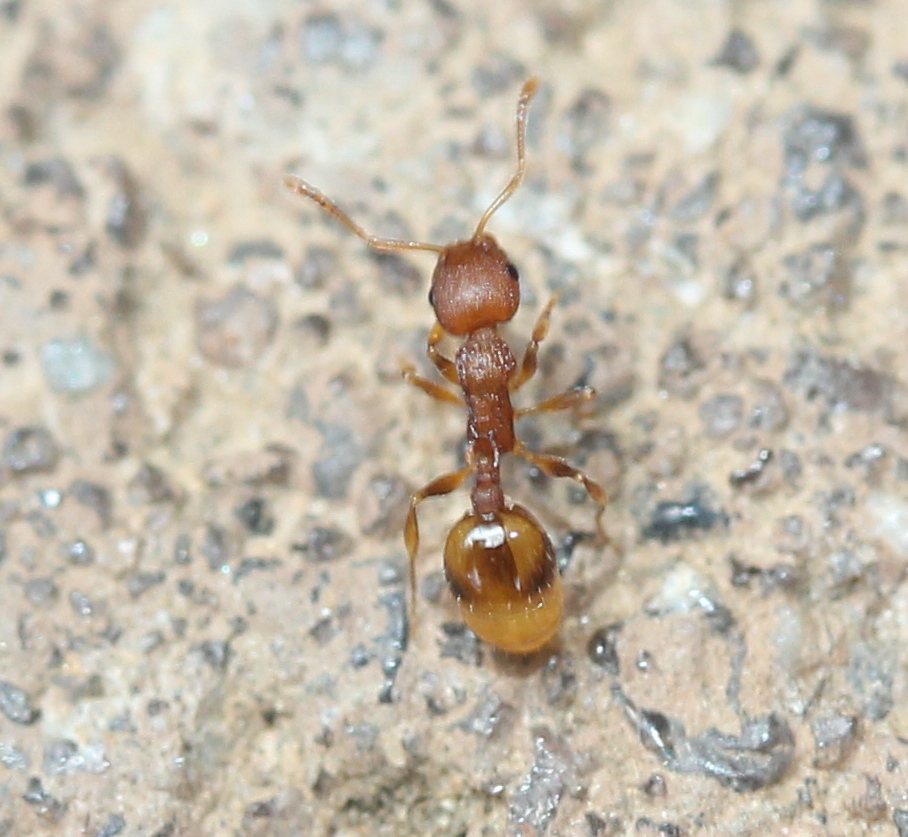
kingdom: Animalia
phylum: Arthropoda
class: Insecta
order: Hymenoptera
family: Formicidae
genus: Temnothorax
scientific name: Temnothorax curvispinosus
